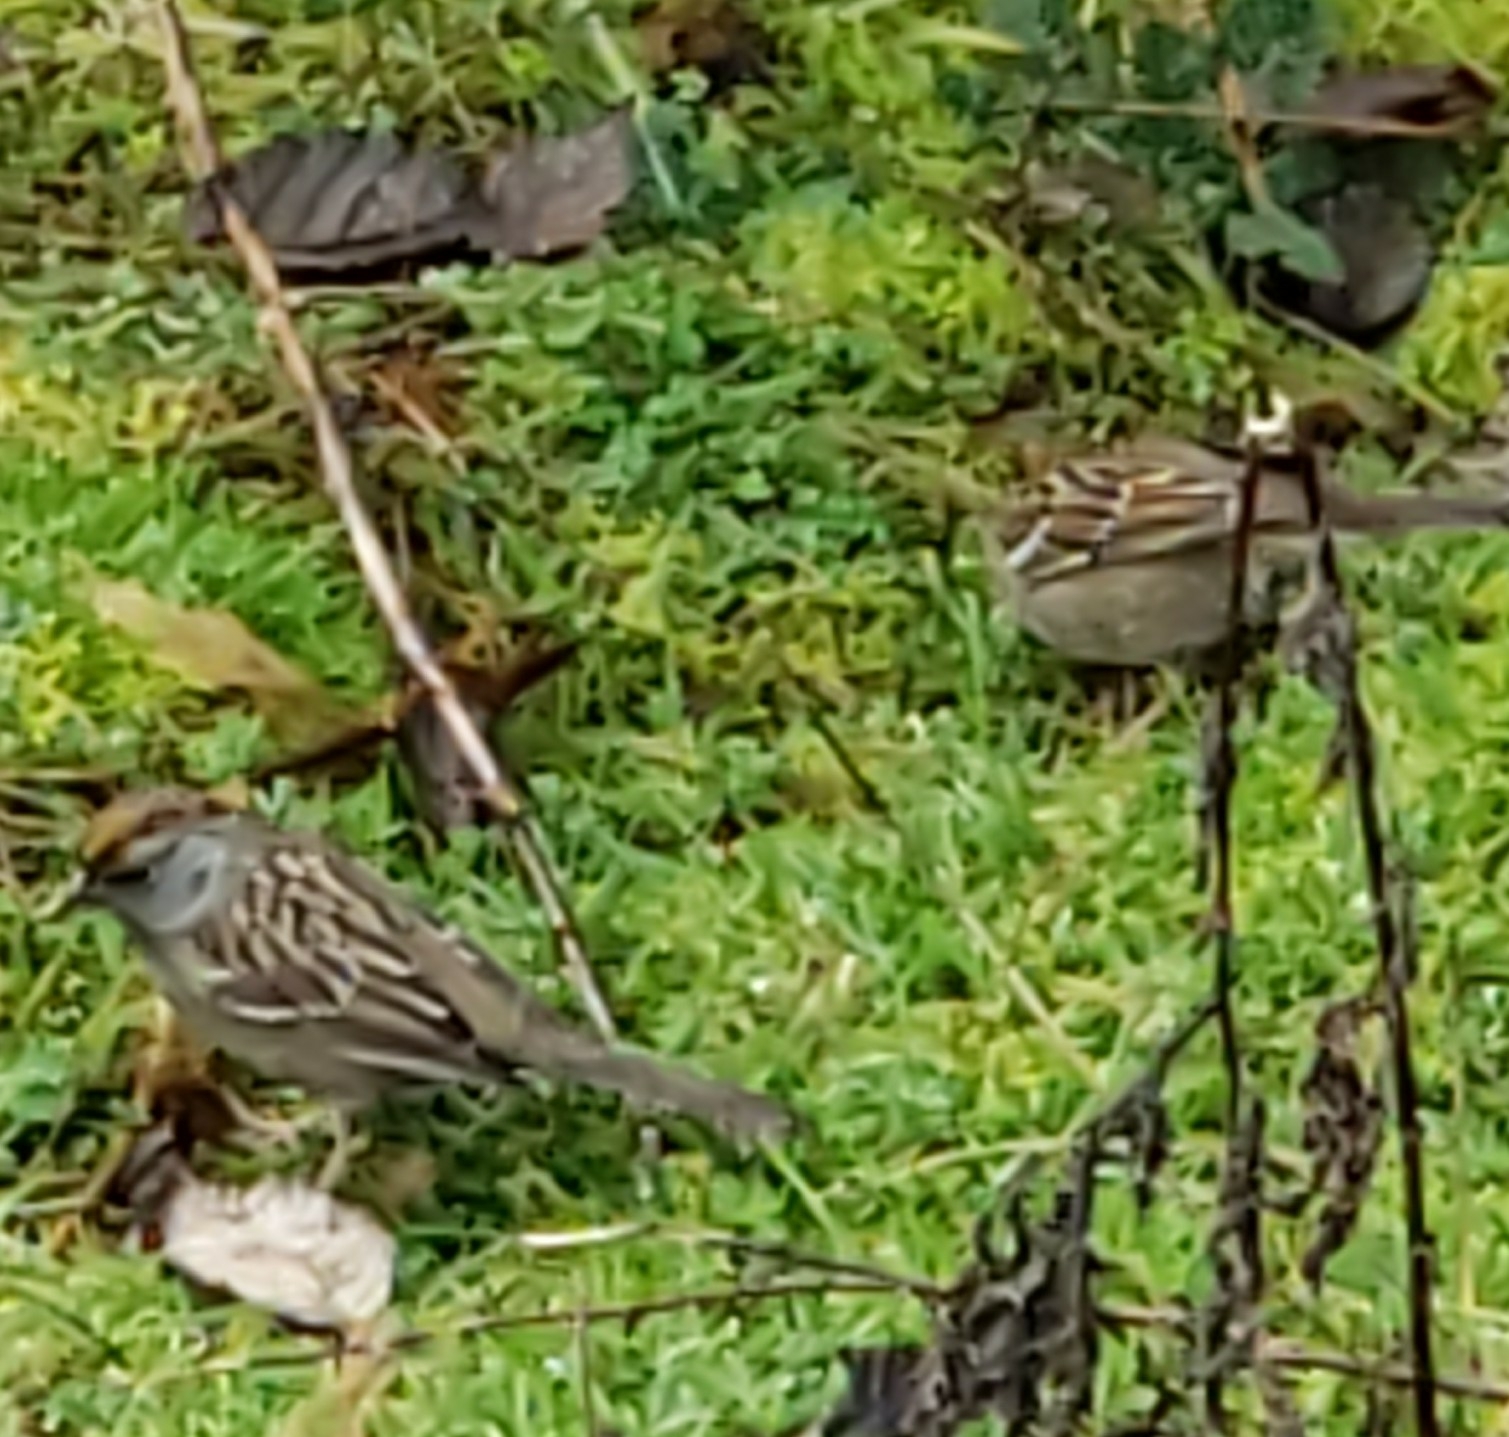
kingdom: Animalia
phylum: Chordata
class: Aves
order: Passeriformes
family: Passerellidae
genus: Zonotrichia
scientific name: Zonotrichia atricapilla
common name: Golden-crowned sparrow
